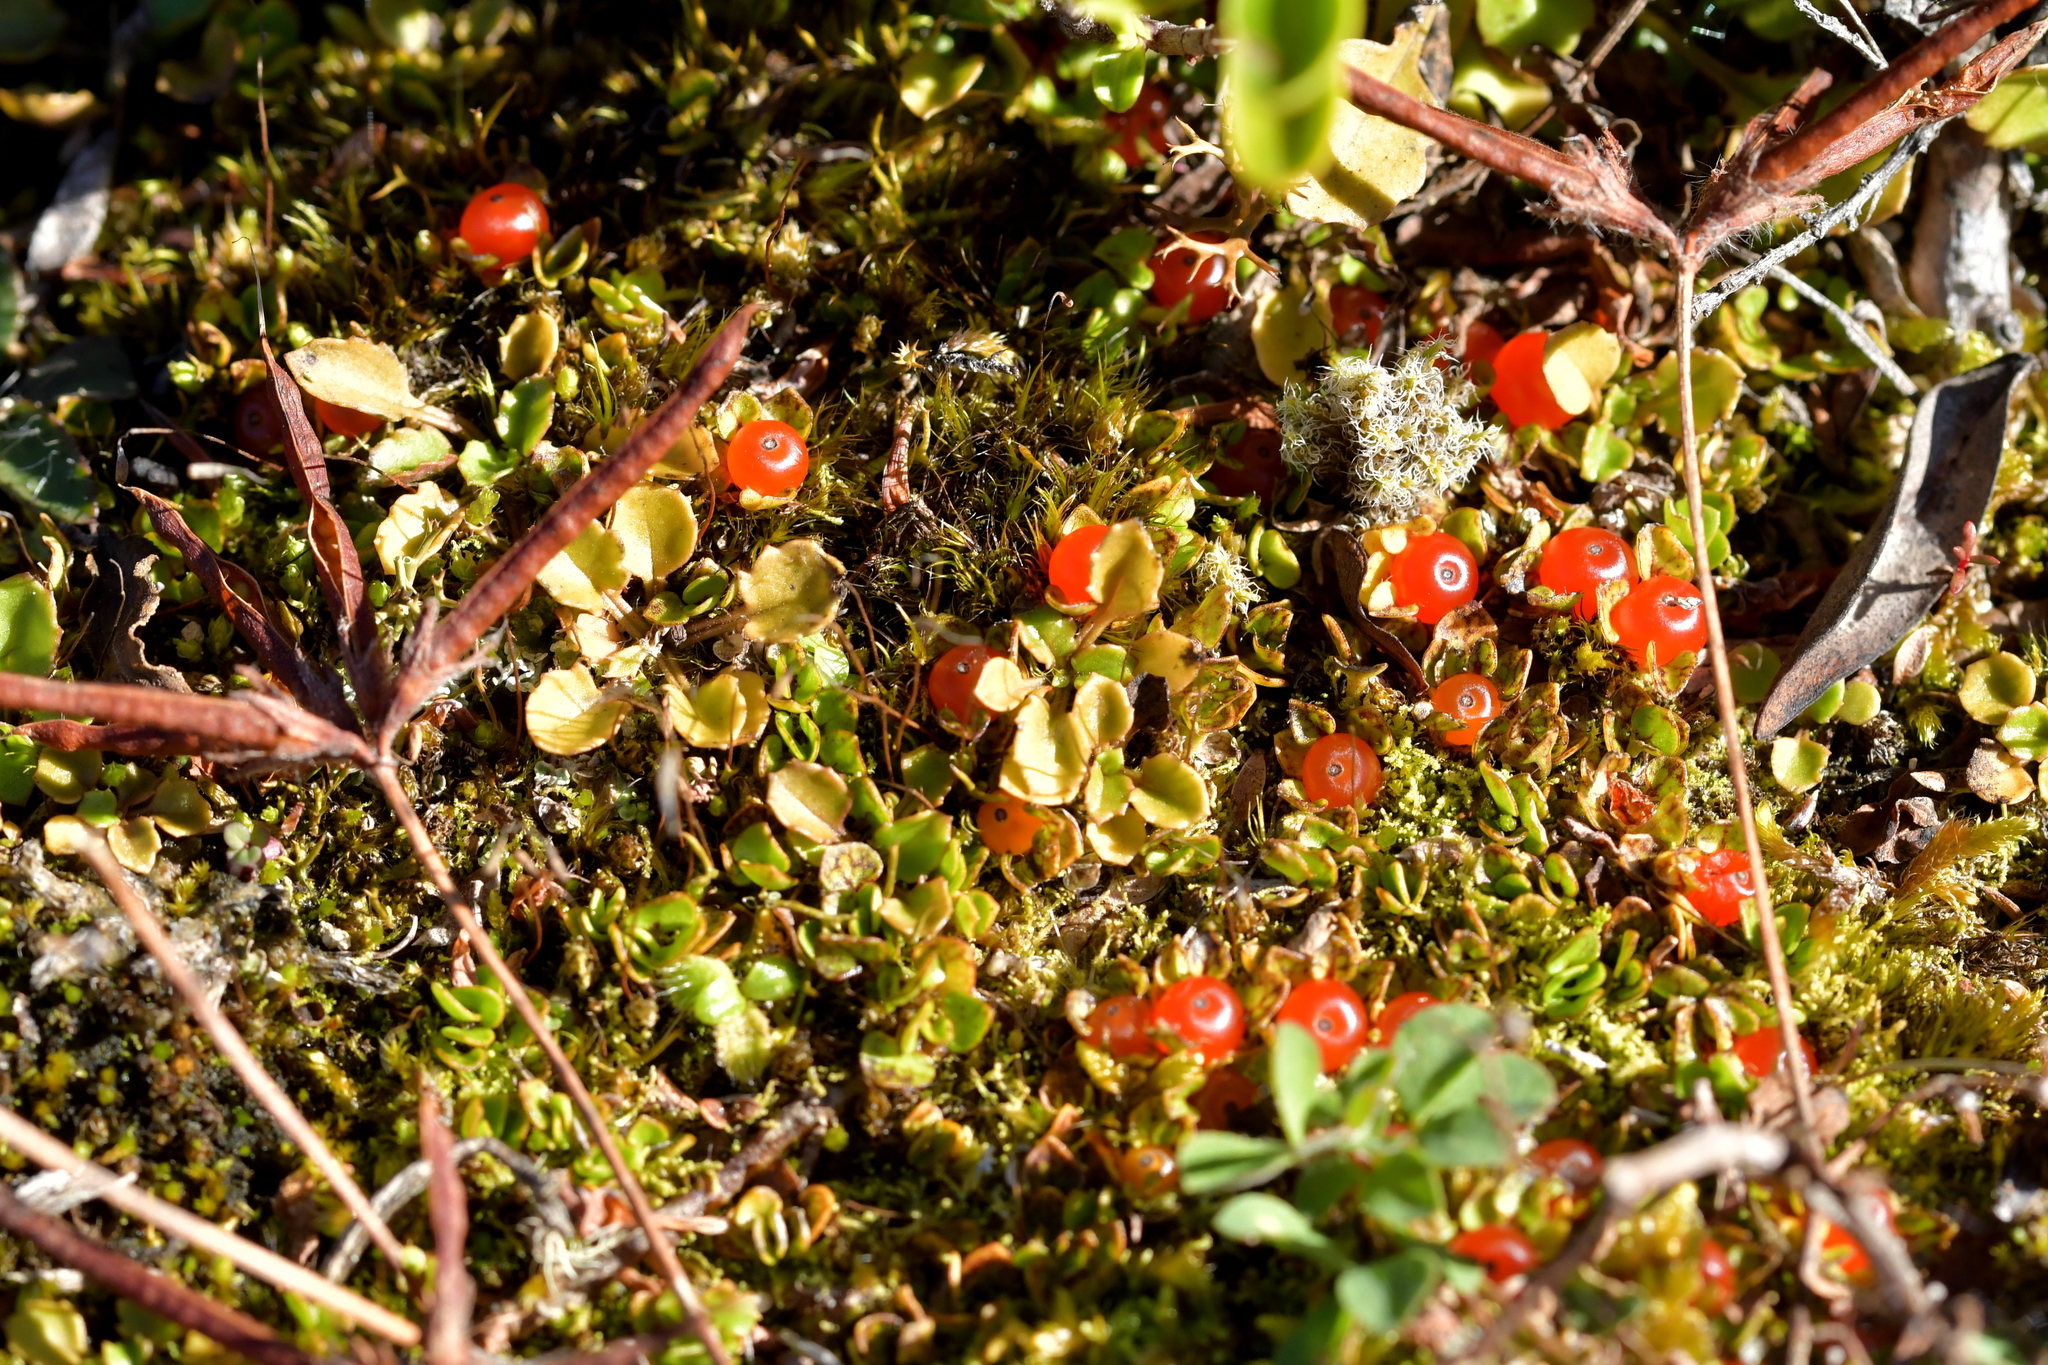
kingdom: Plantae
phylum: Tracheophyta
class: Magnoliopsida
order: Gentianales
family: Rubiaceae
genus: Nertera
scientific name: Nertera granadensis
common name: Beadplant
